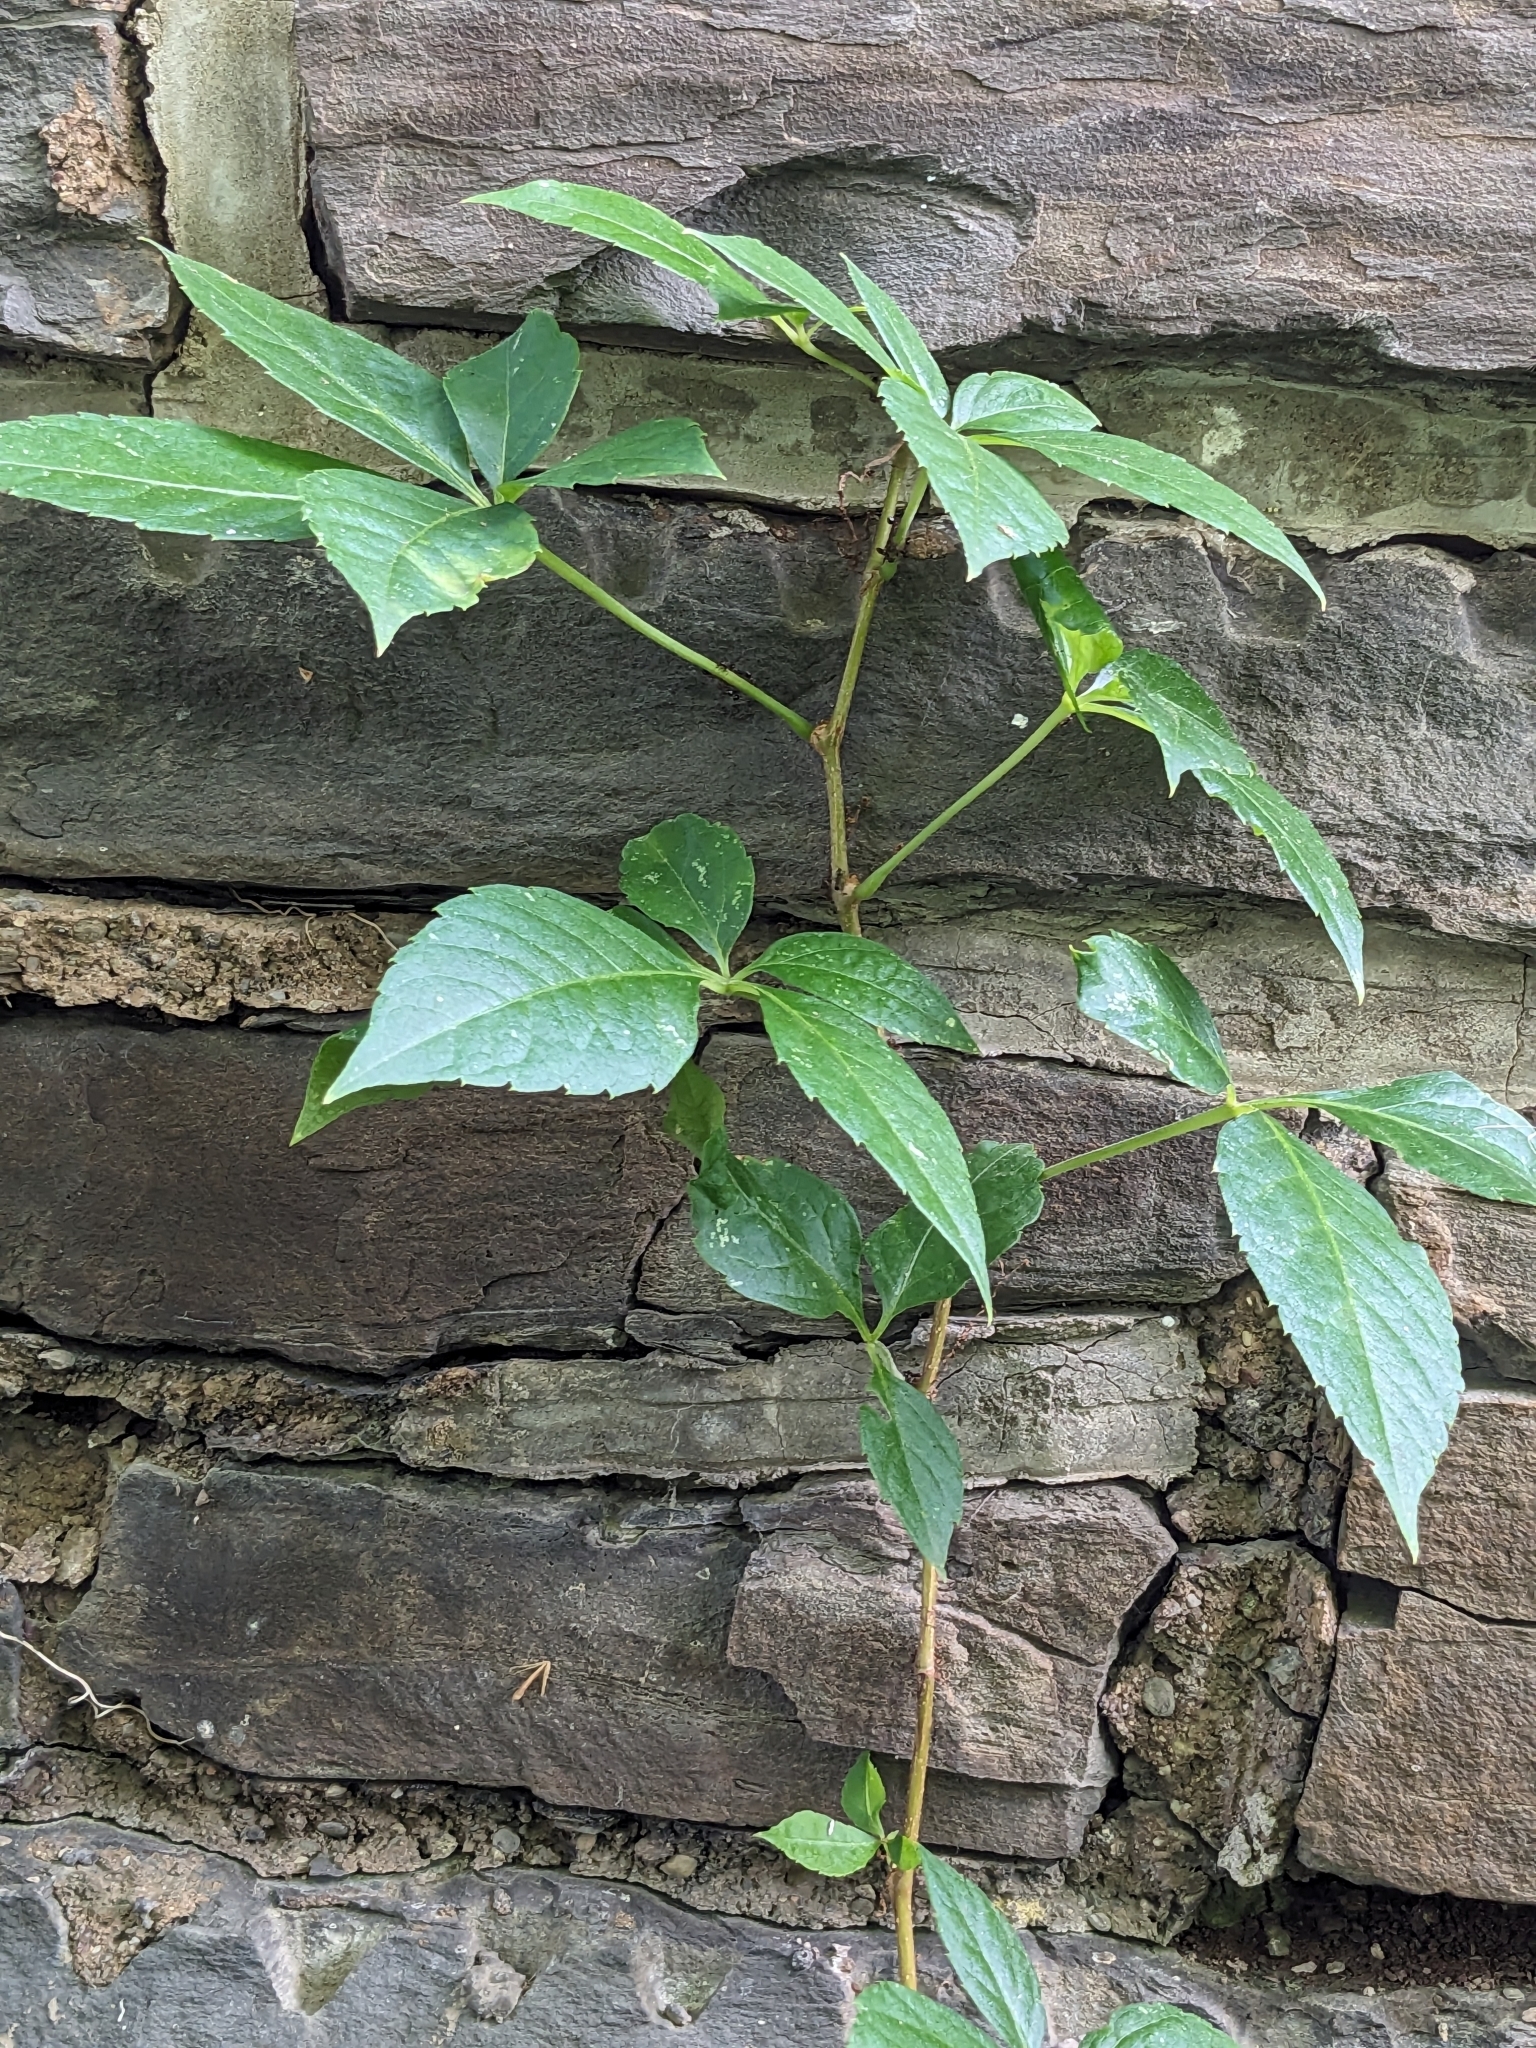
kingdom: Plantae
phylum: Tracheophyta
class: Magnoliopsida
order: Vitales
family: Vitaceae
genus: Parthenocissus
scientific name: Parthenocissus quinquefolia
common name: Virginia-creeper
